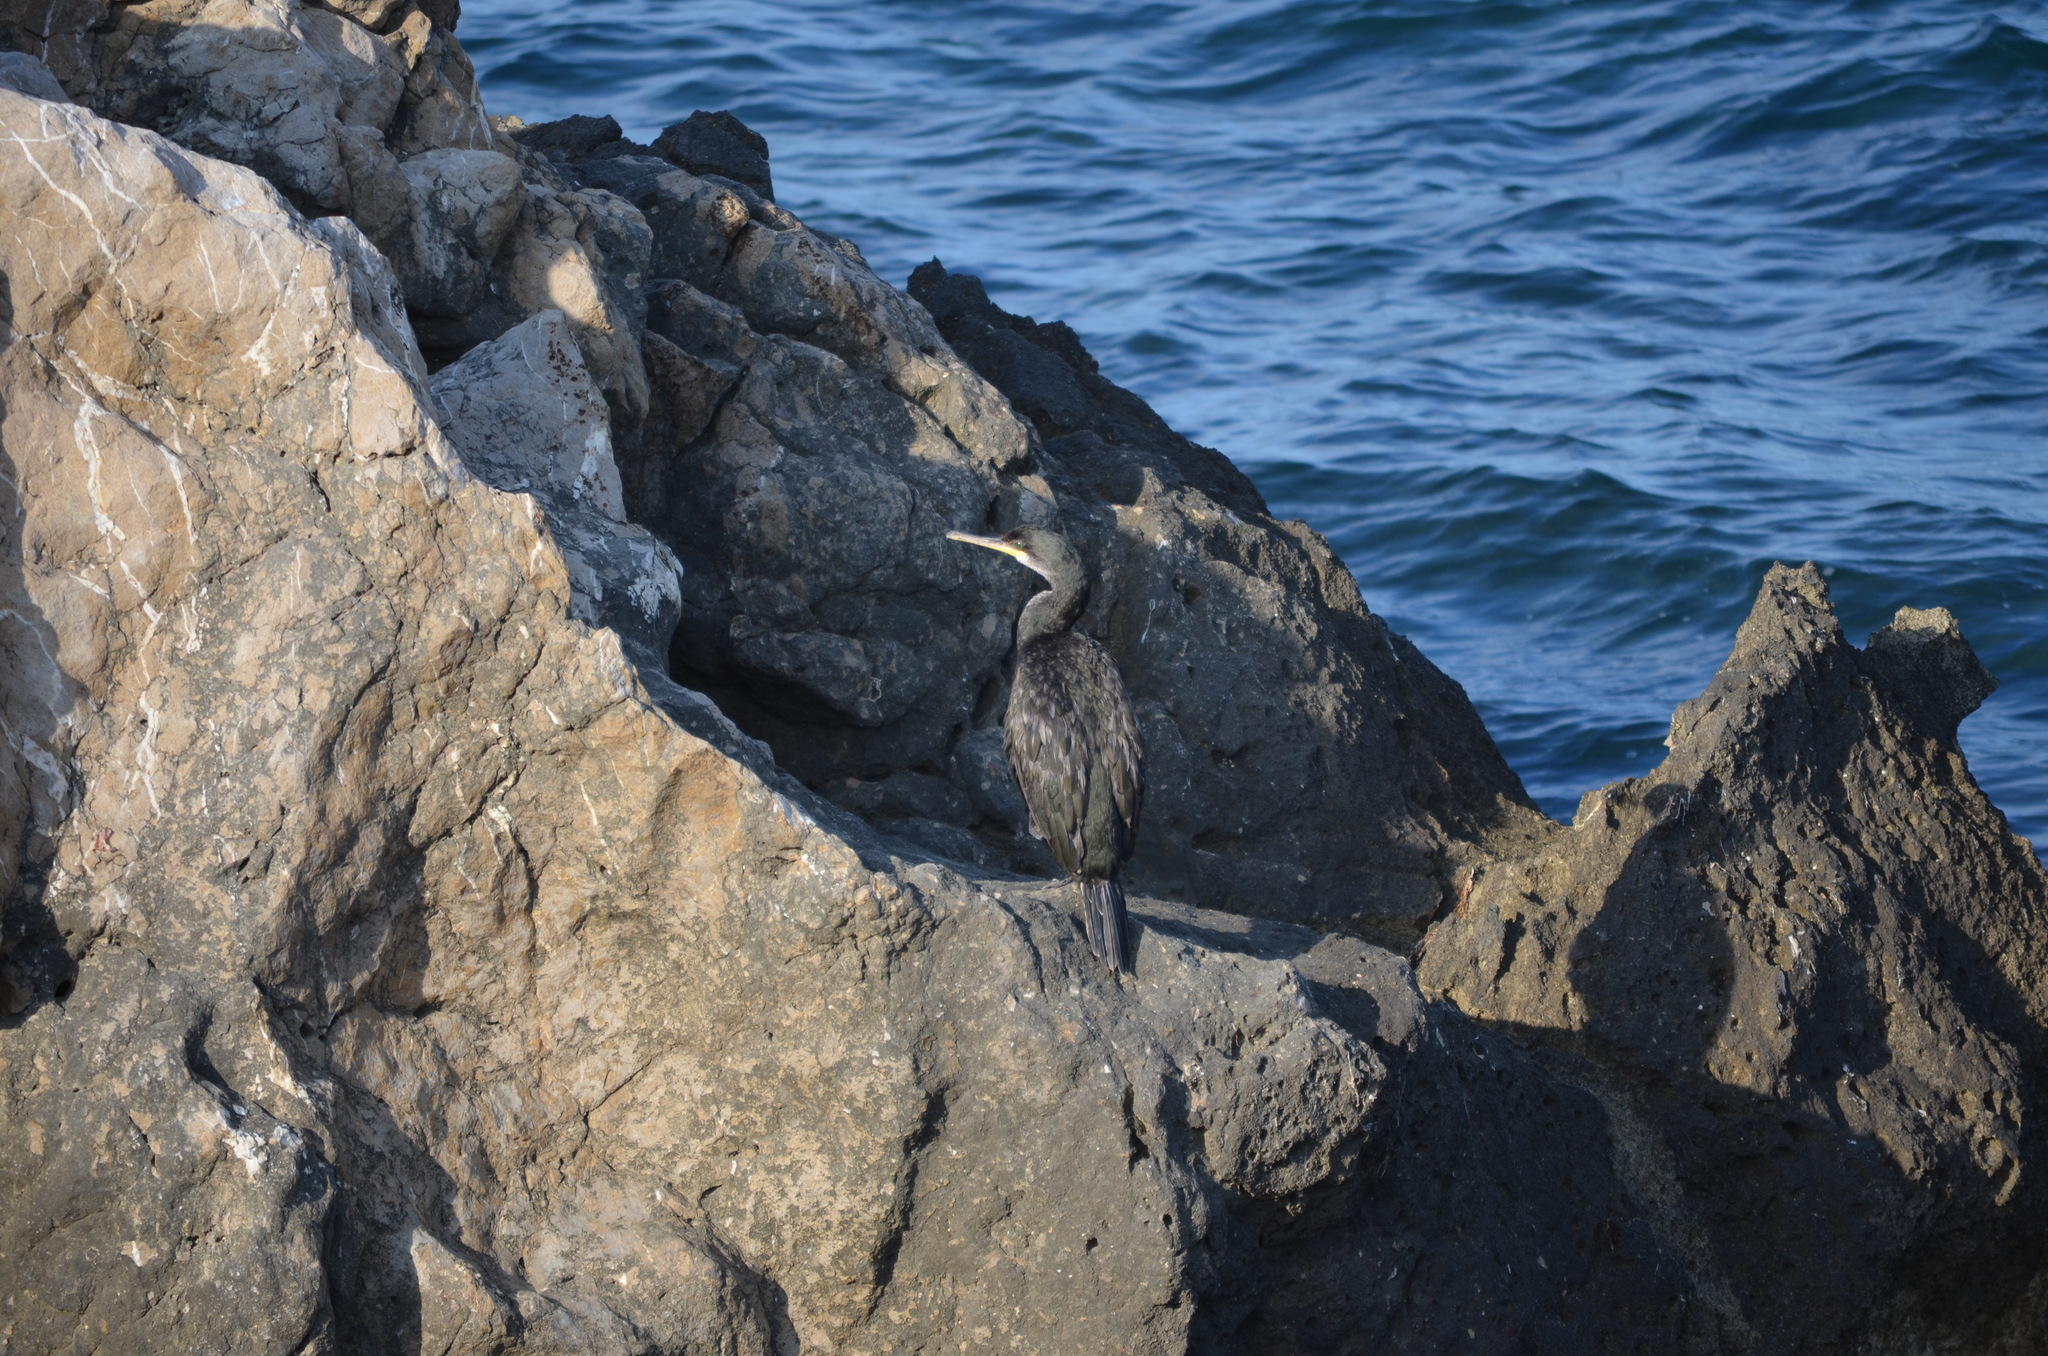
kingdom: Animalia
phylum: Chordata
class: Aves
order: Suliformes
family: Phalacrocoracidae
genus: Phalacrocorax
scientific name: Phalacrocorax aristotelis
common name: European shag
